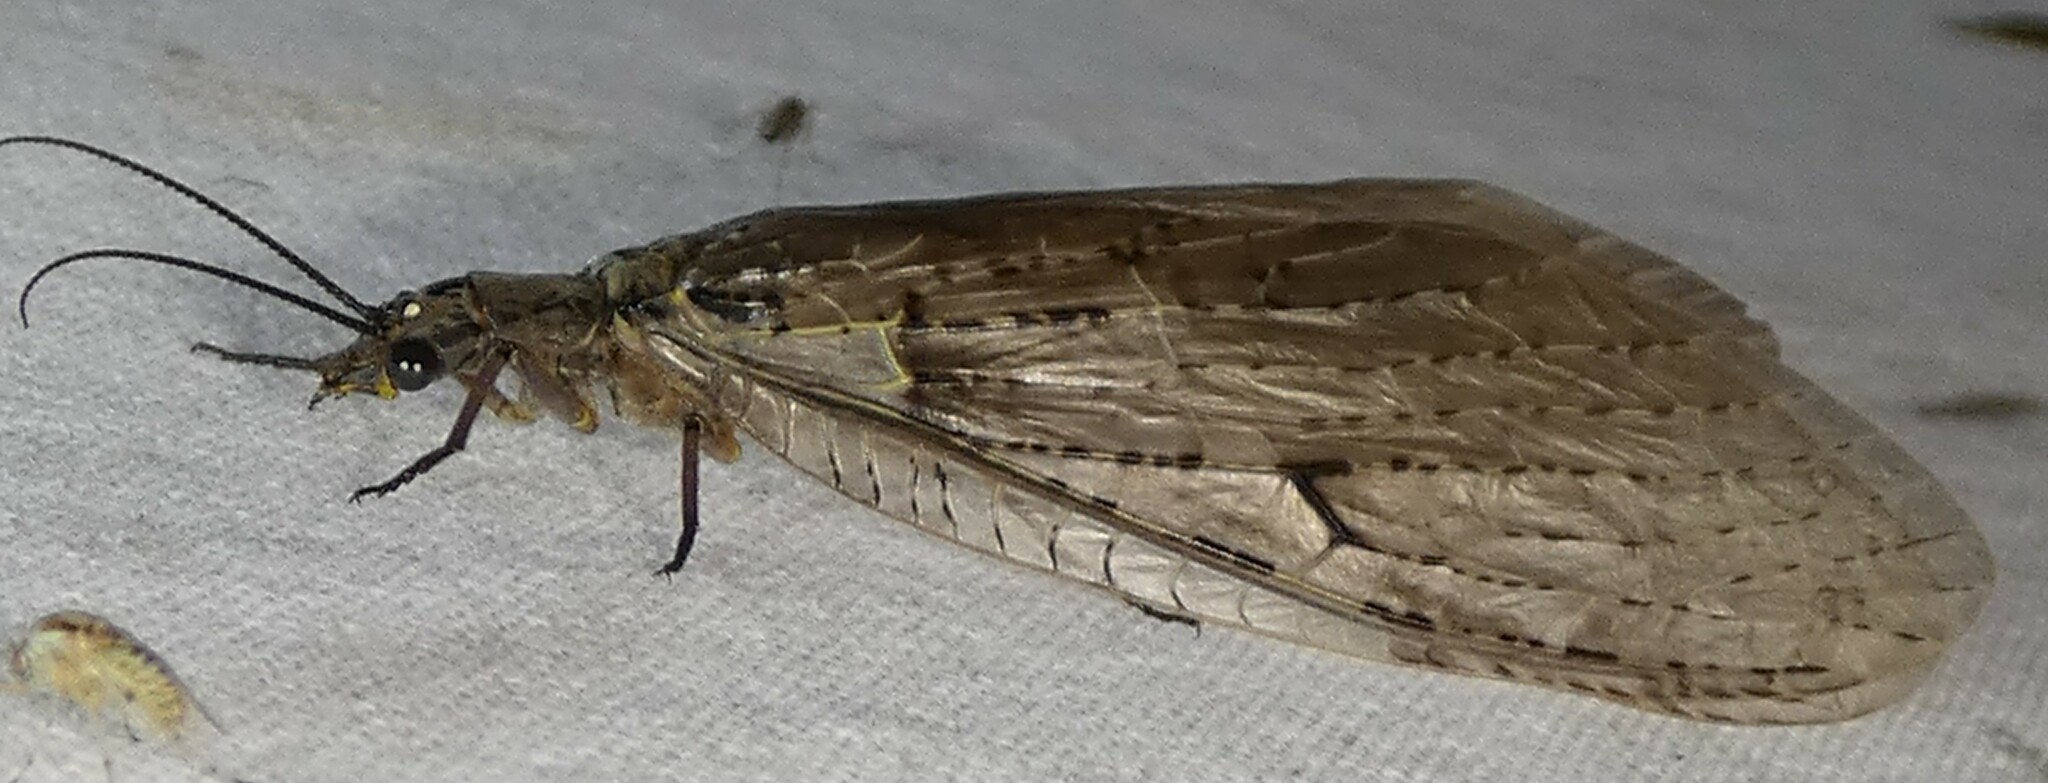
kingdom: Animalia
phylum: Arthropoda
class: Insecta
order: Megaloptera
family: Corydalidae
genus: Chauliodes
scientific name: Chauliodes rastricornis
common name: Spring fishfly
